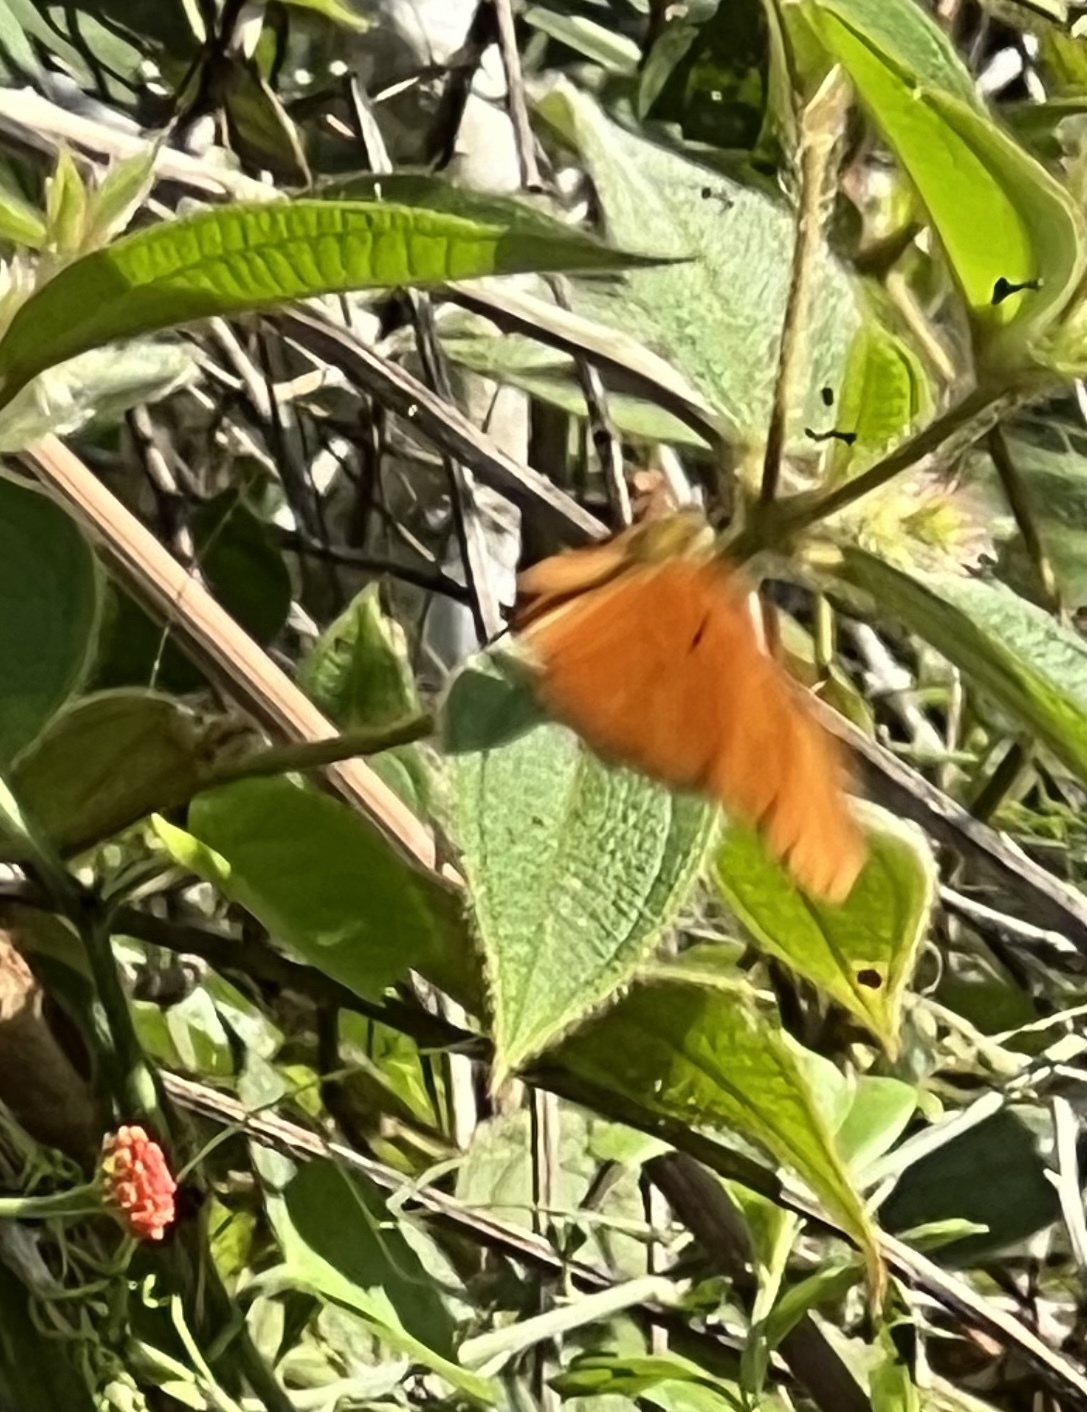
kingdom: Animalia
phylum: Arthropoda
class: Insecta
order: Lepidoptera
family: Nymphalidae
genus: Dryas
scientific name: Dryas iulia
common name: Flambeau
